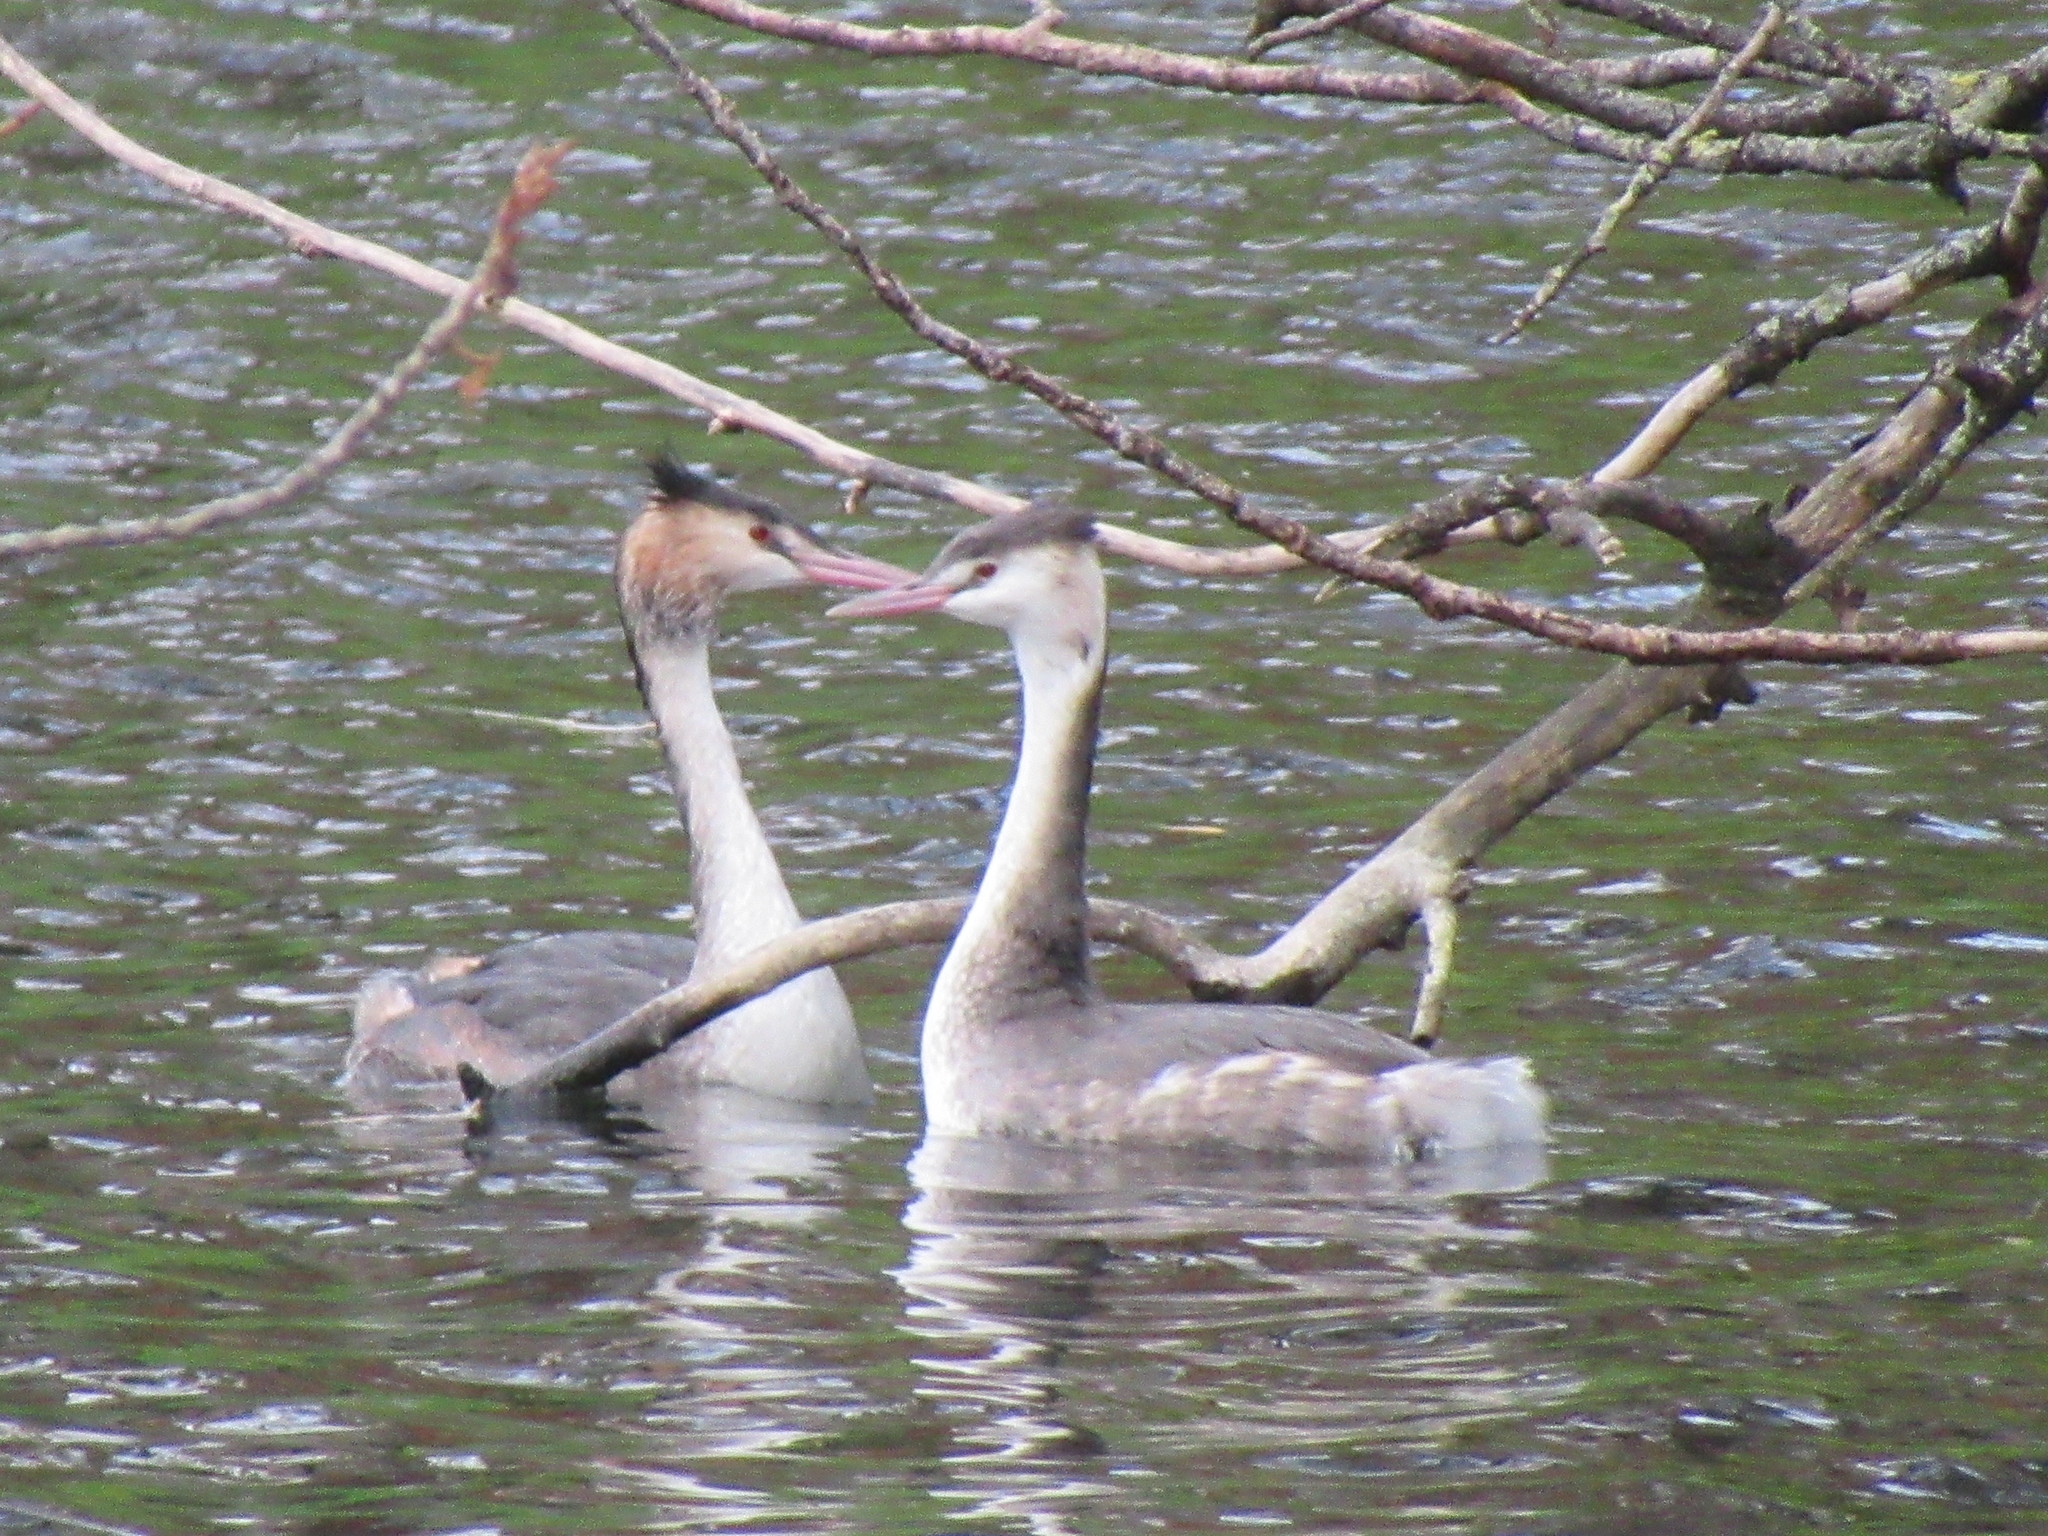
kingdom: Animalia
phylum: Chordata
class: Aves
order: Podicipediformes
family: Podicipedidae
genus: Podiceps
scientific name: Podiceps cristatus
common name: Great crested grebe
